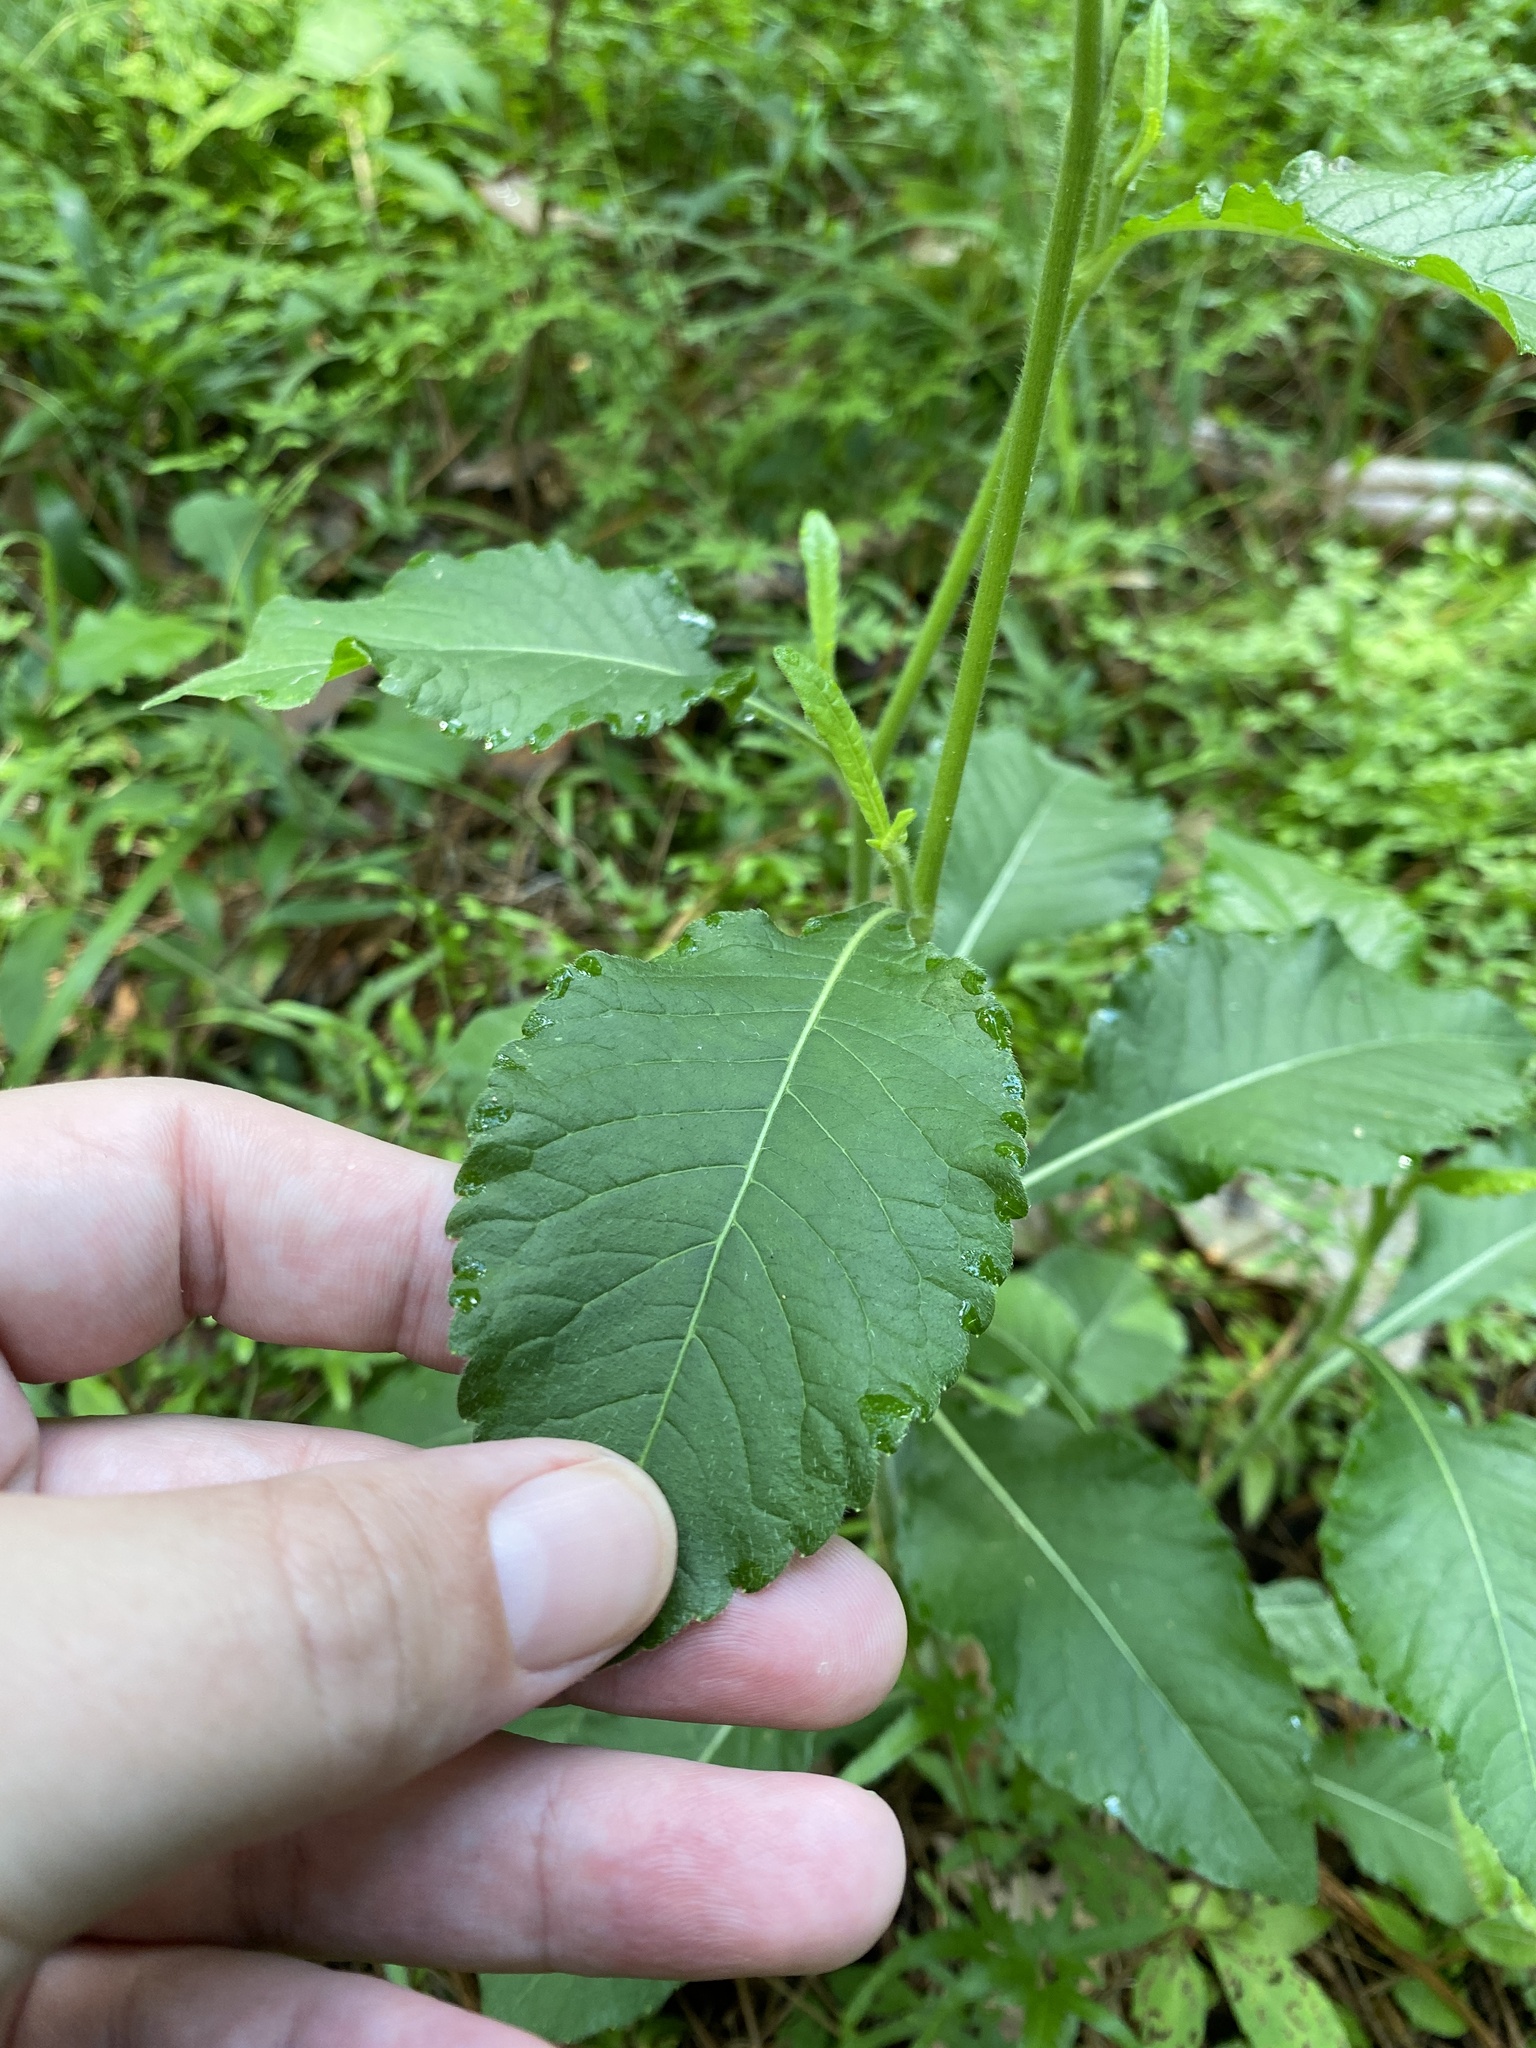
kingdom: Plantae
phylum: Tracheophyta
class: Magnoliopsida
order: Asterales
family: Asteraceae
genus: Elephantopus
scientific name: Elephantopus carolinianus
